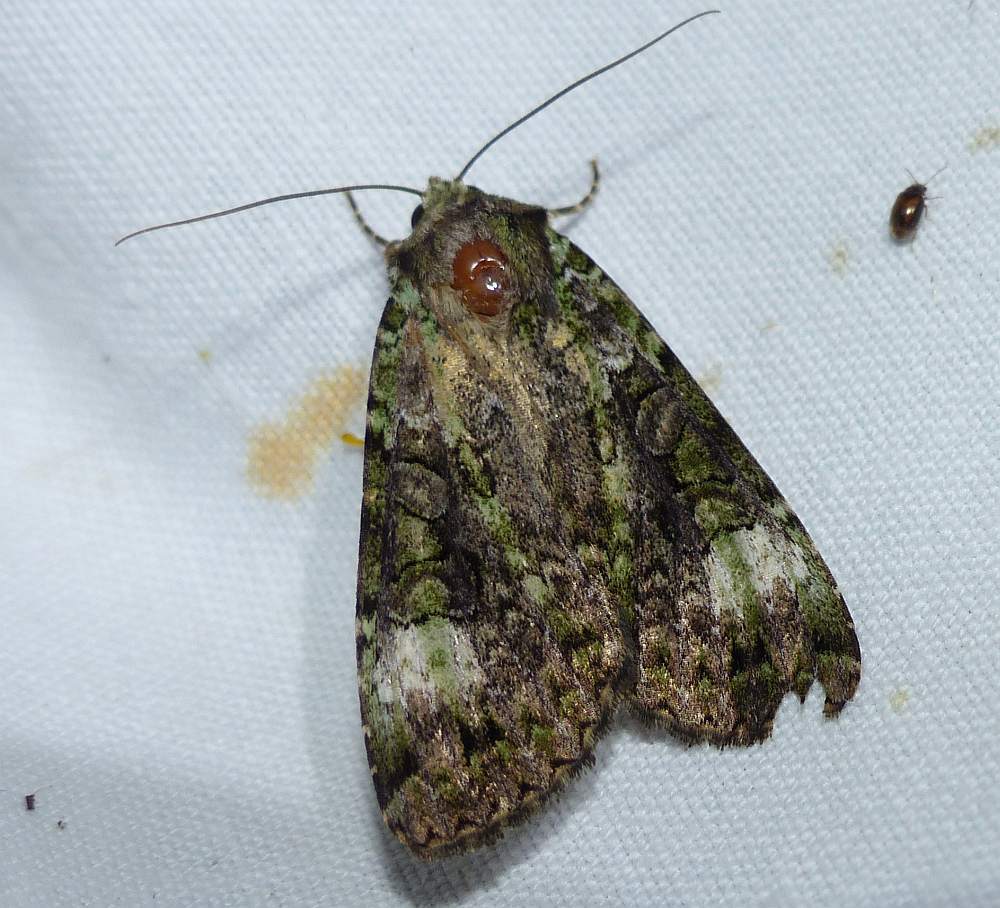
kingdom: Animalia
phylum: Arthropoda
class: Insecta
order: Lepidoptera
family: Noctuidae
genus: Anaplectoides
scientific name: Anaplectoides prasina
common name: Green arches
